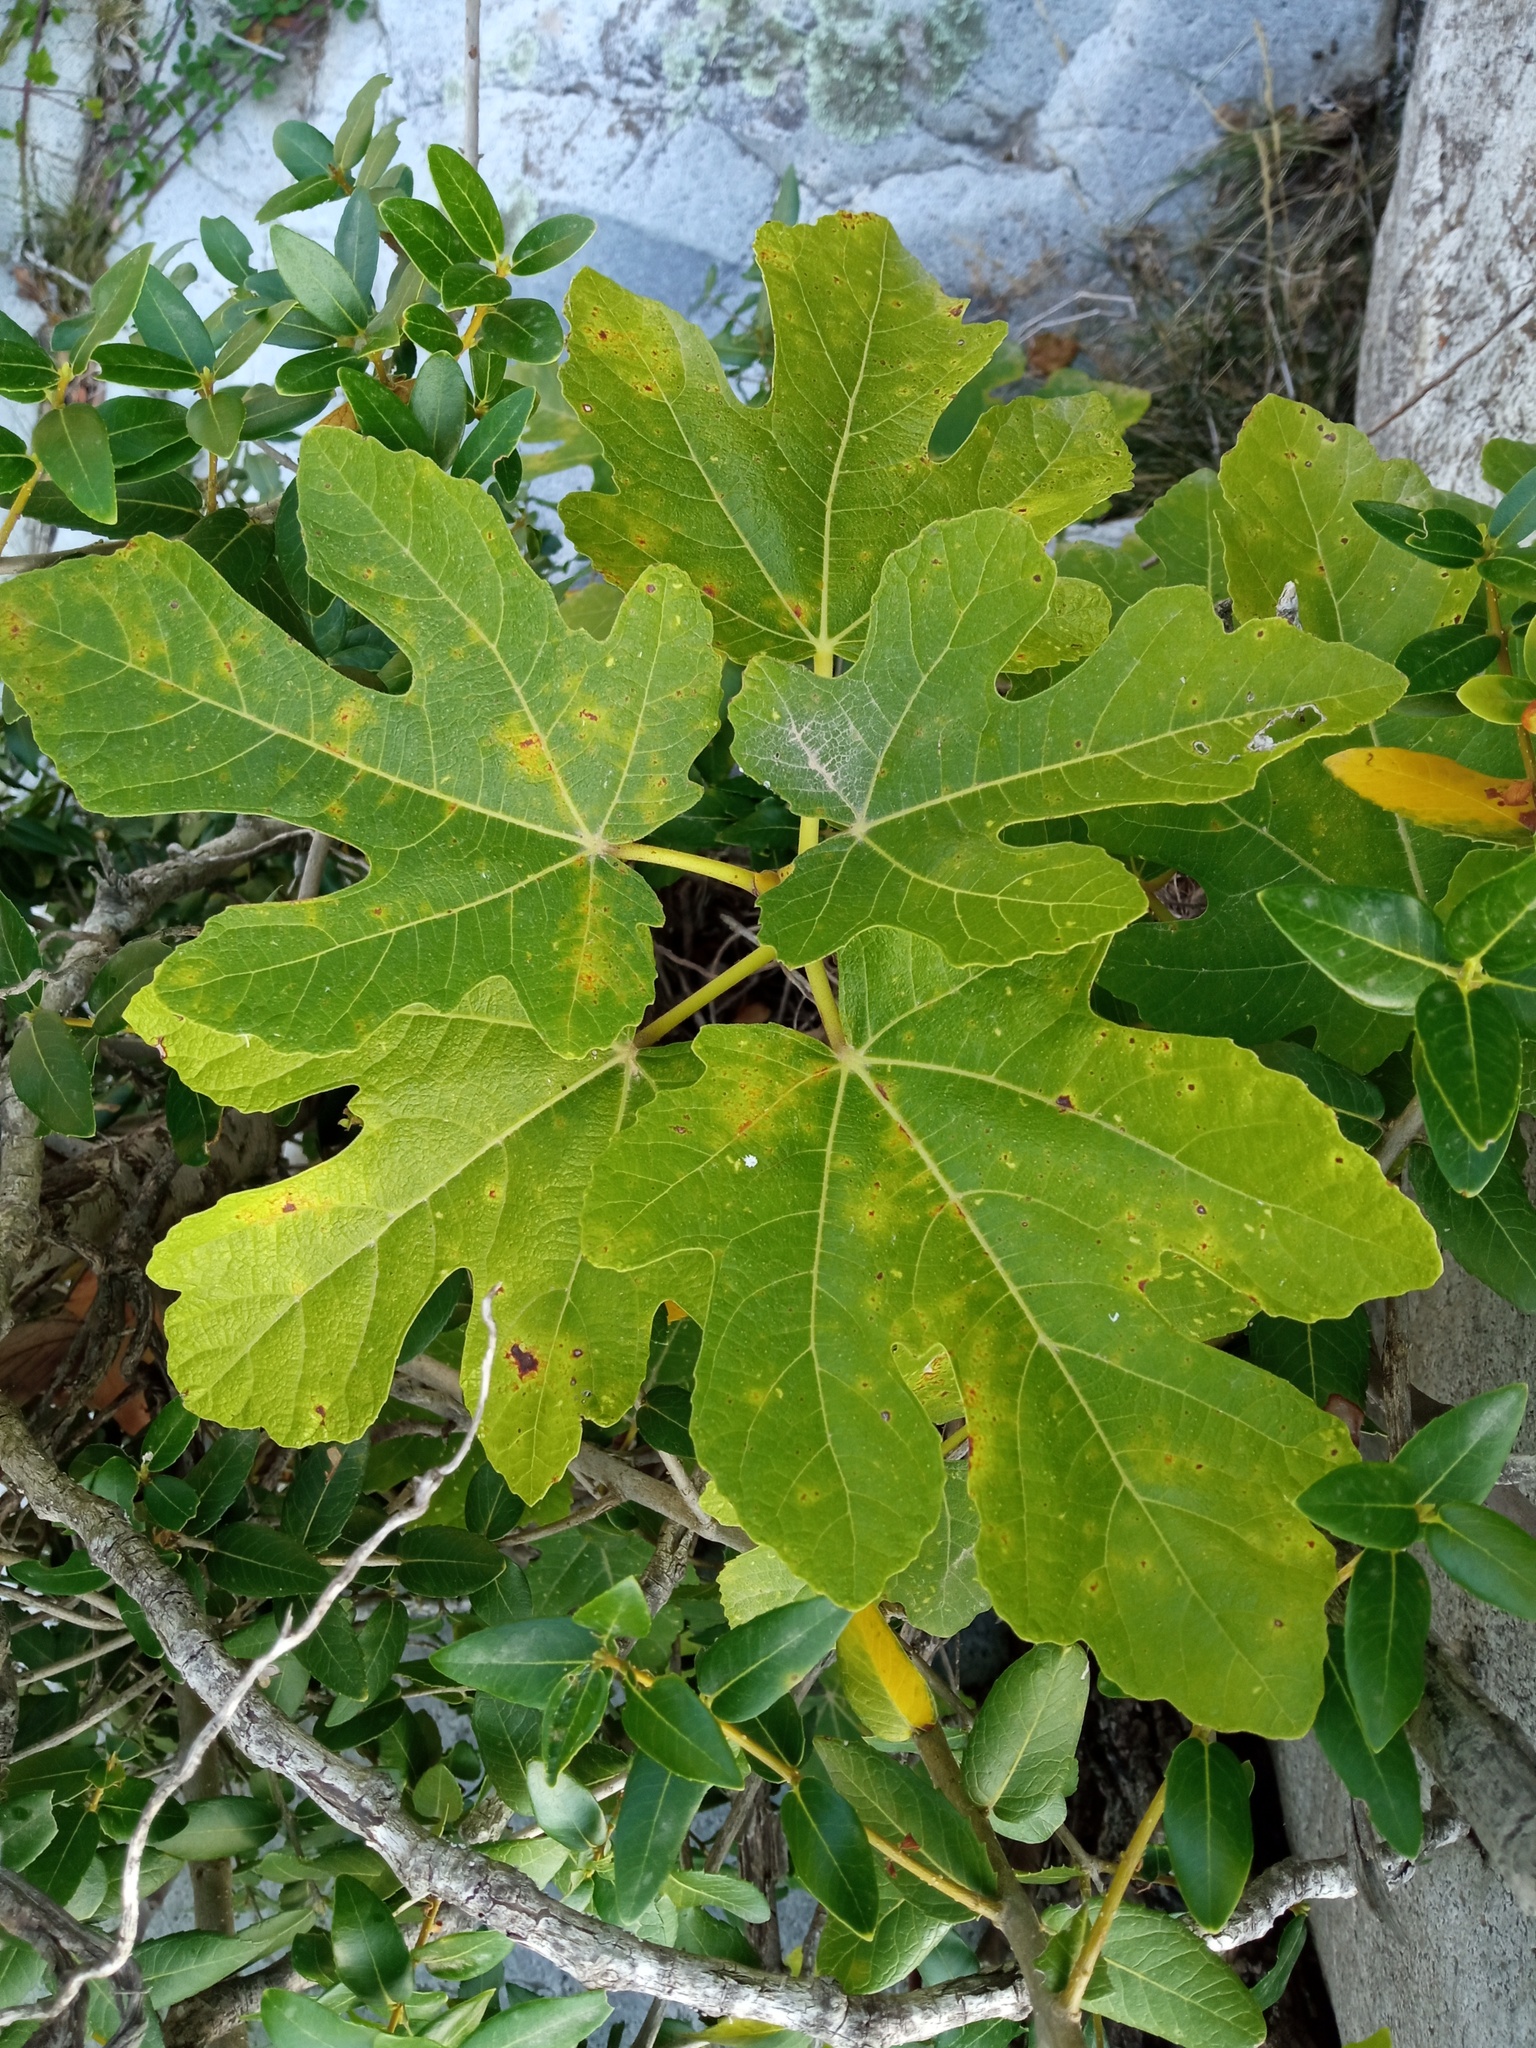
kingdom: Plantae
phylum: Tracheophyta
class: Magnoliopsida
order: Rosales
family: Moraceae
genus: Ficus
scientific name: Ficus carica
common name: Fig
